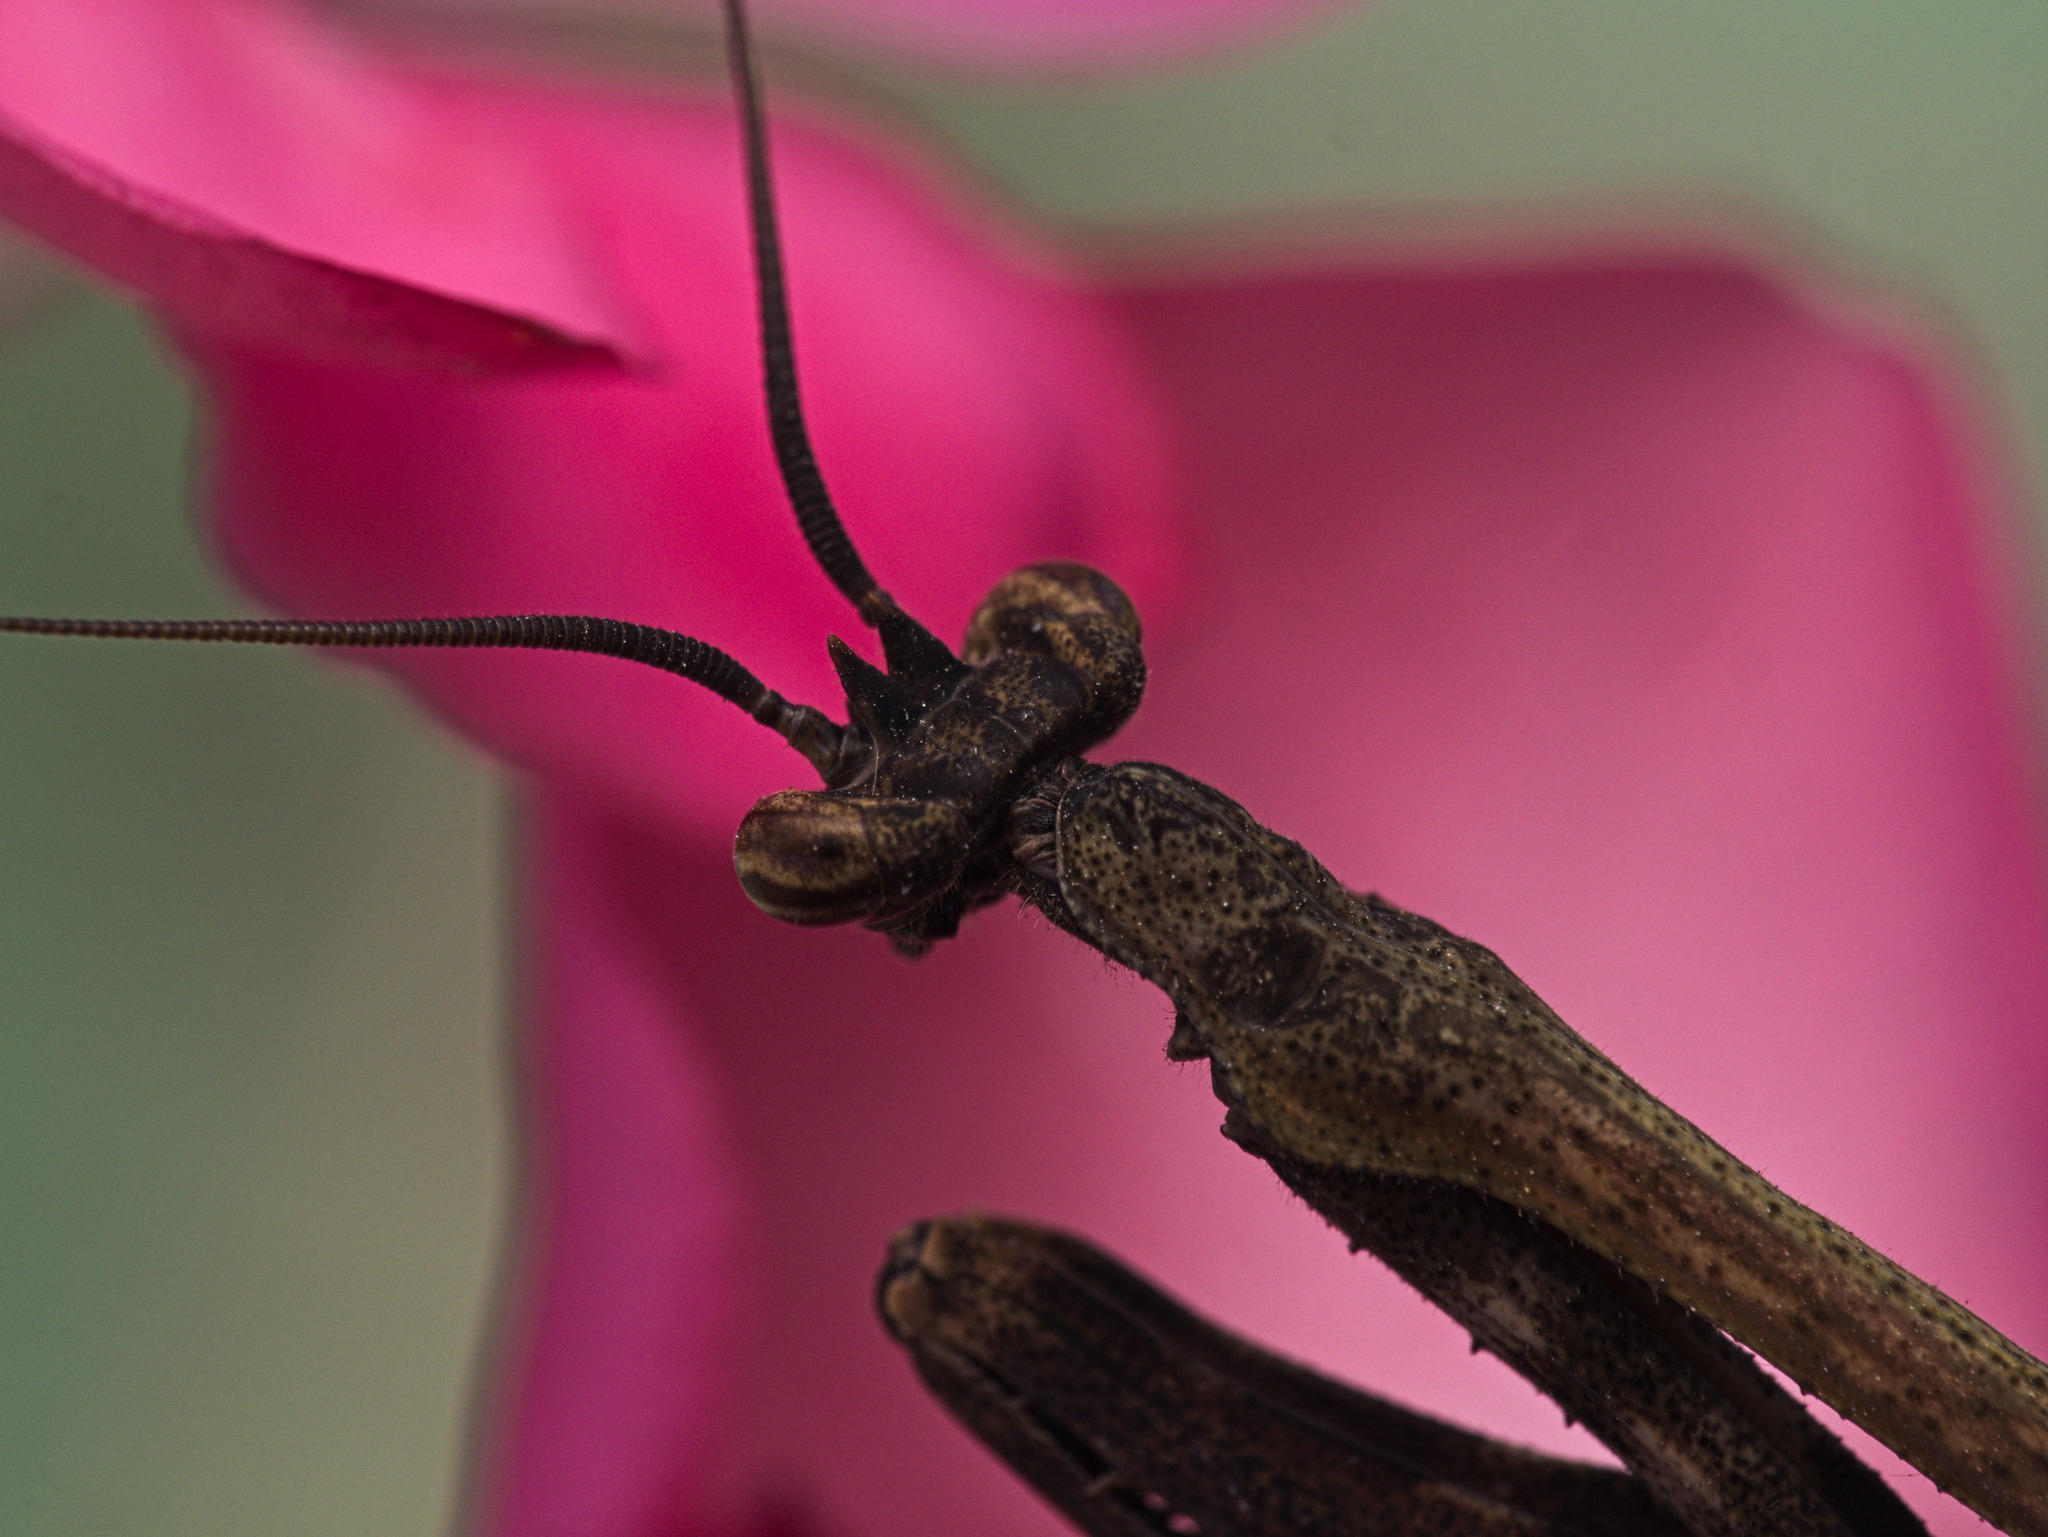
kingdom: Animalia
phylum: Arthropoda
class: Insecta
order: Mantodea
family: Mantidae
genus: Pseudovates
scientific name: Pseudovates tolteca
